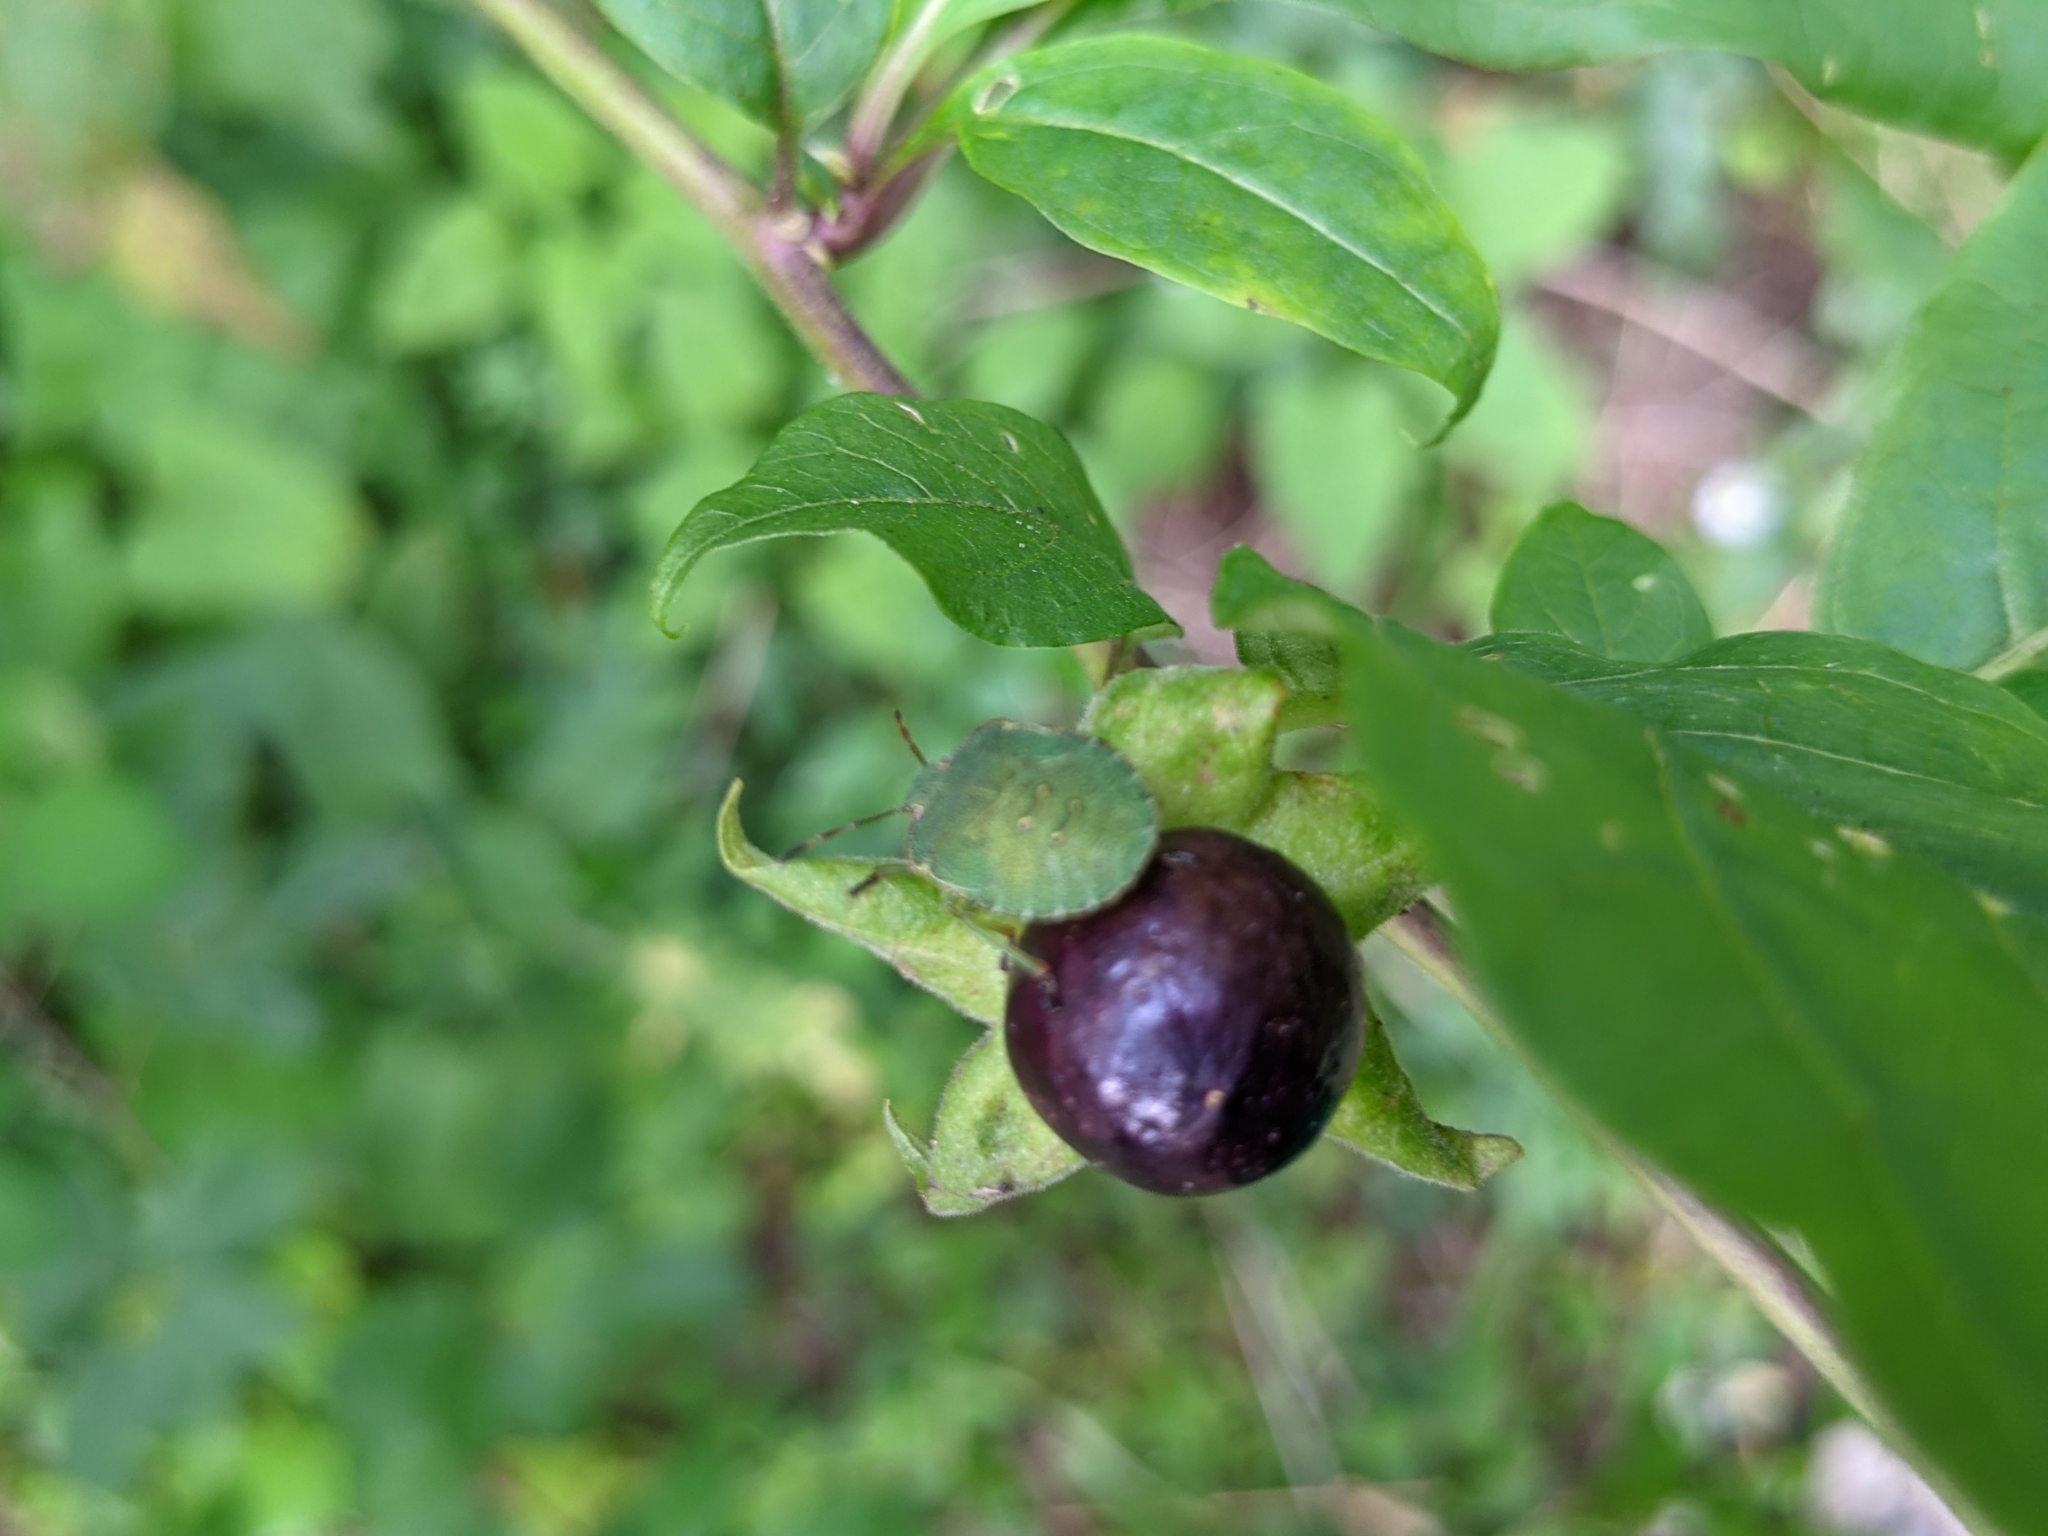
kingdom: Animalia
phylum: Arthropoda
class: Insecta
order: Hemiptera
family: Pentatomidae
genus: Palomena
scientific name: Palomena prasina
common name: Green shieldbug
